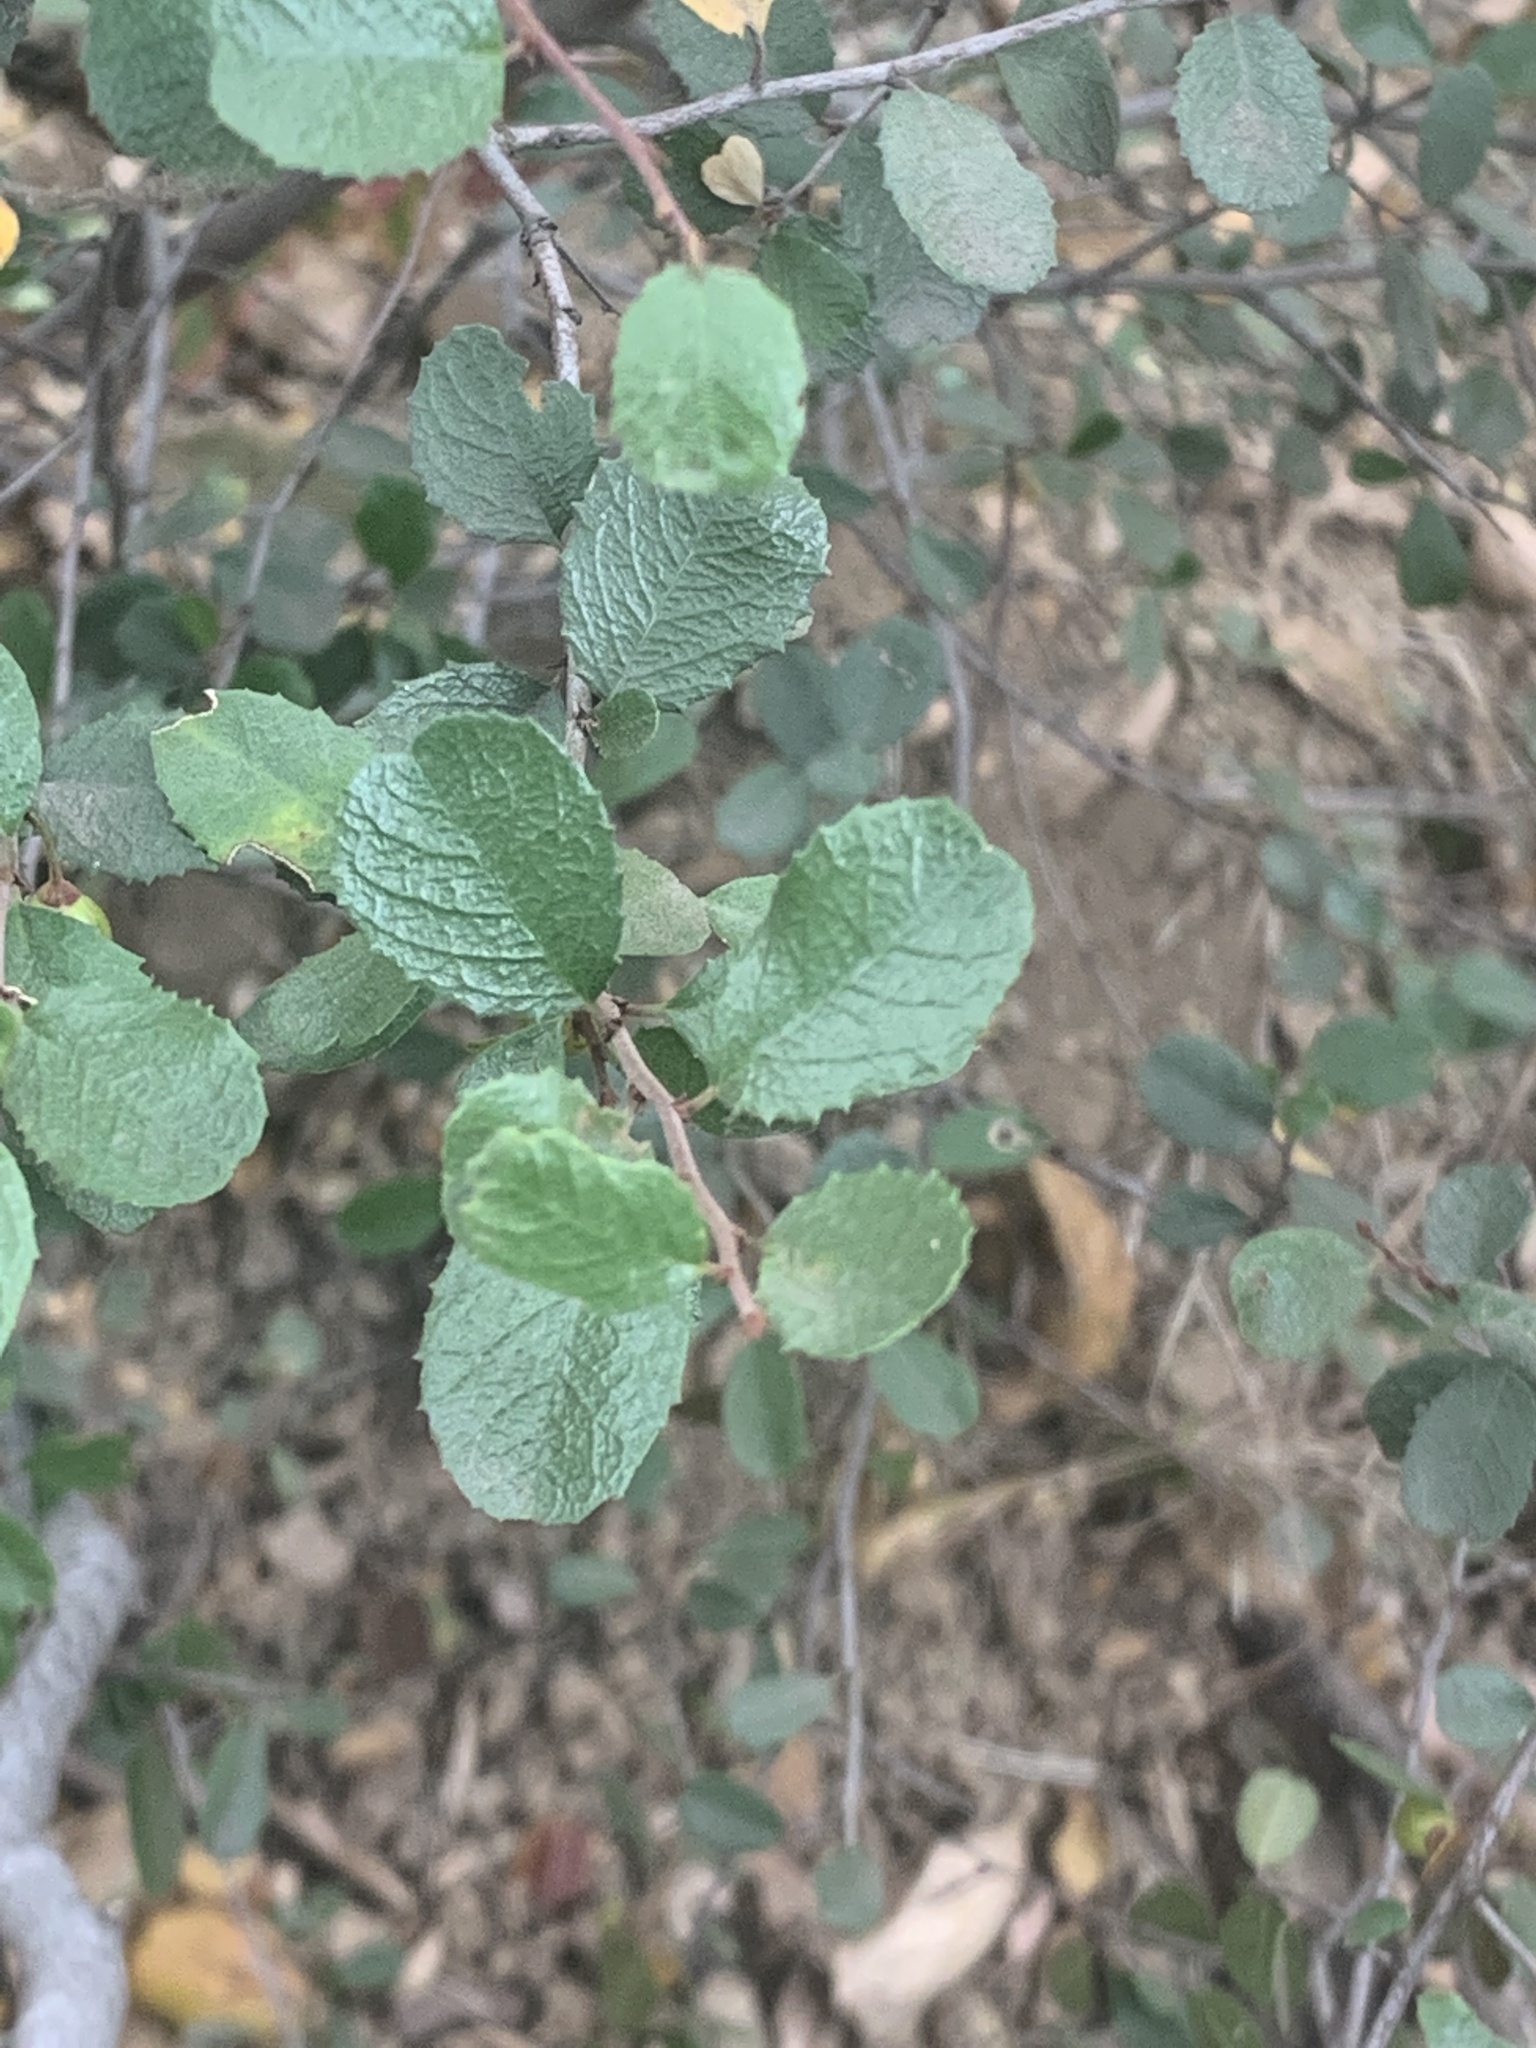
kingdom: Plantae
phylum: Tracheophyta
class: Magnoliopsida
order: Rosales
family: Rhamnaceae
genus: Endotropis
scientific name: Endotropis crocea
